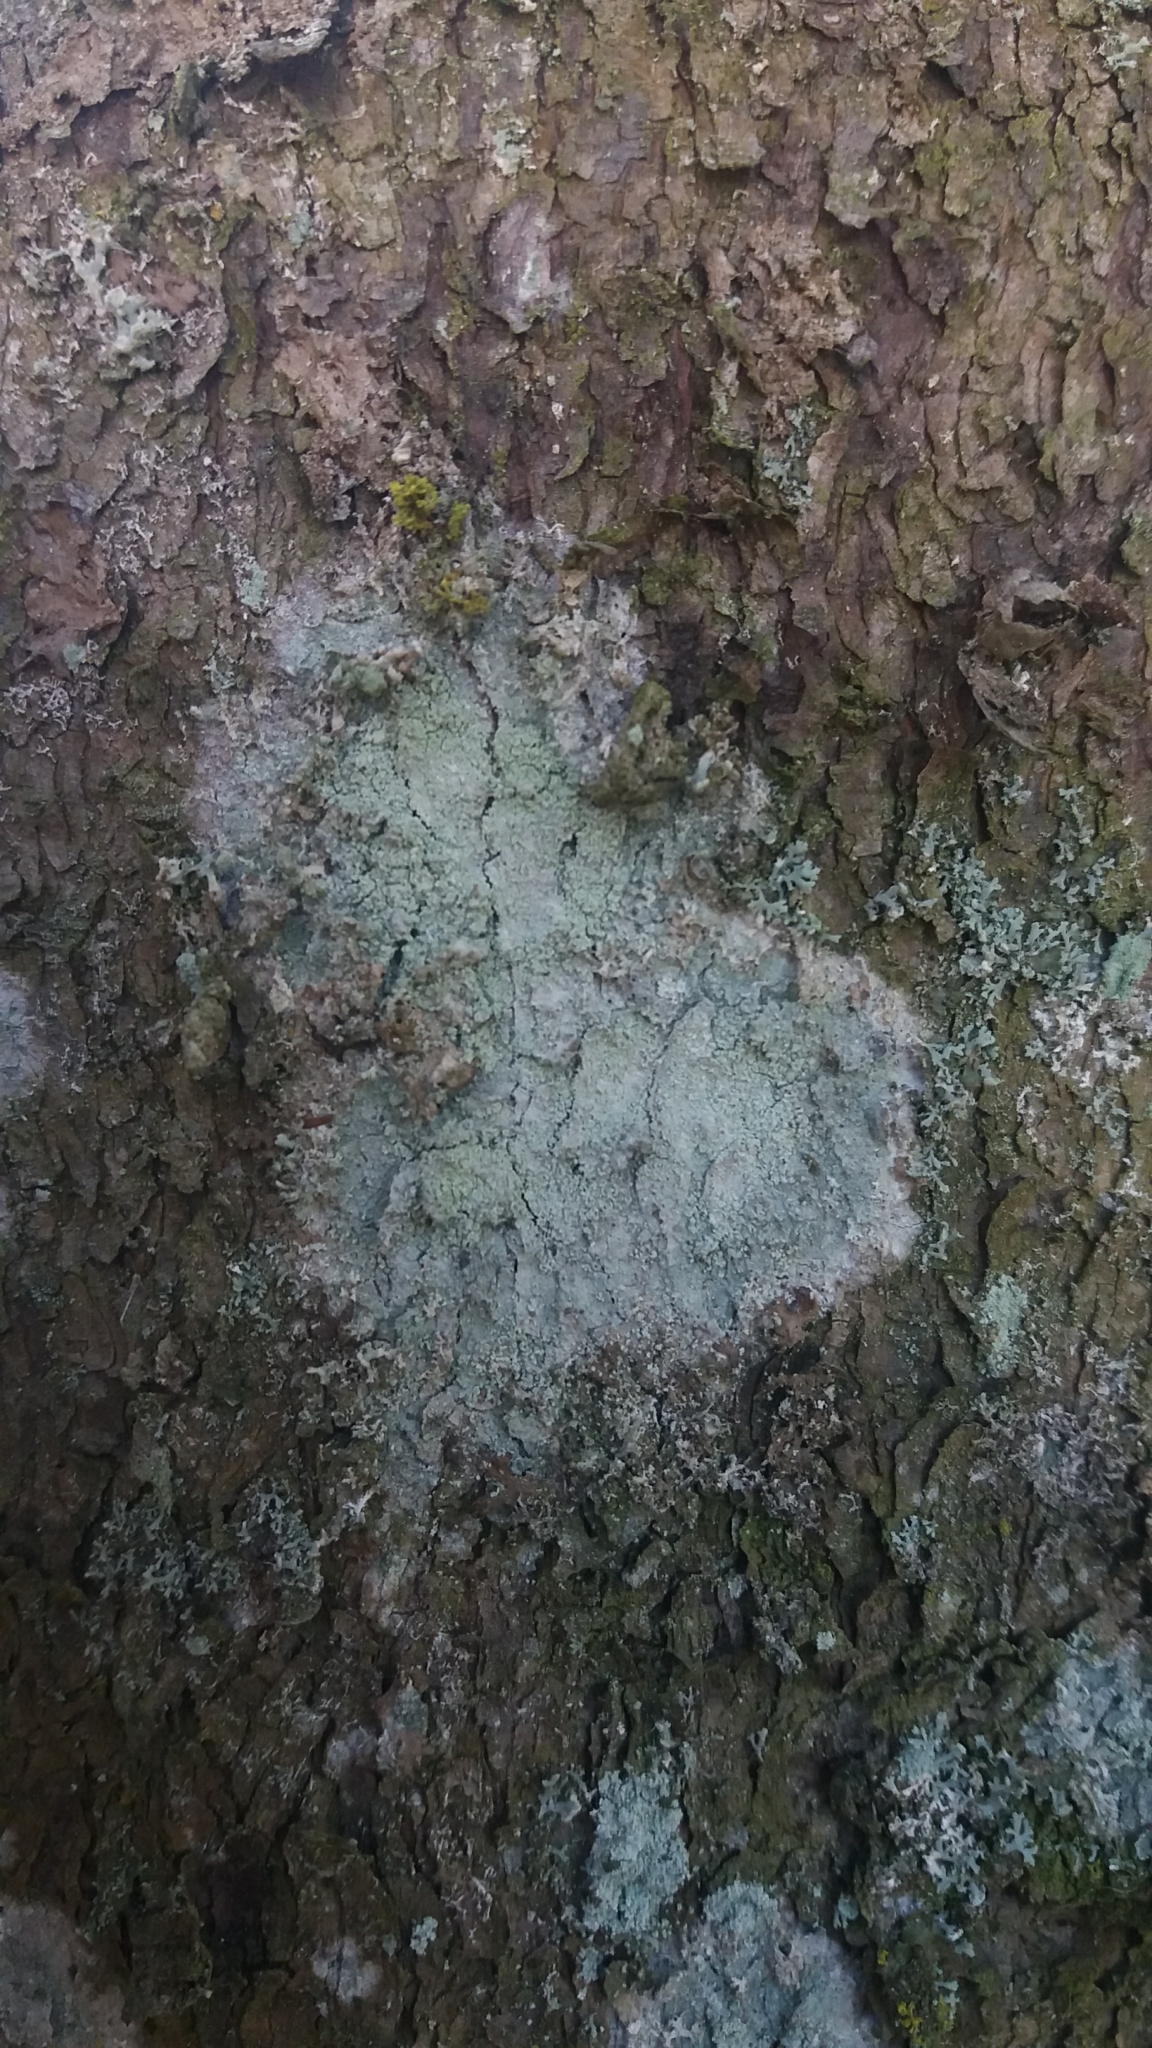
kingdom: Fungi
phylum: Ascomycota
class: Lecanoromycetes
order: Ostropales
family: Phlyctidaceae
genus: Phlyctis
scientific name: Phlyctis argena
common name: Whitewash lichen
